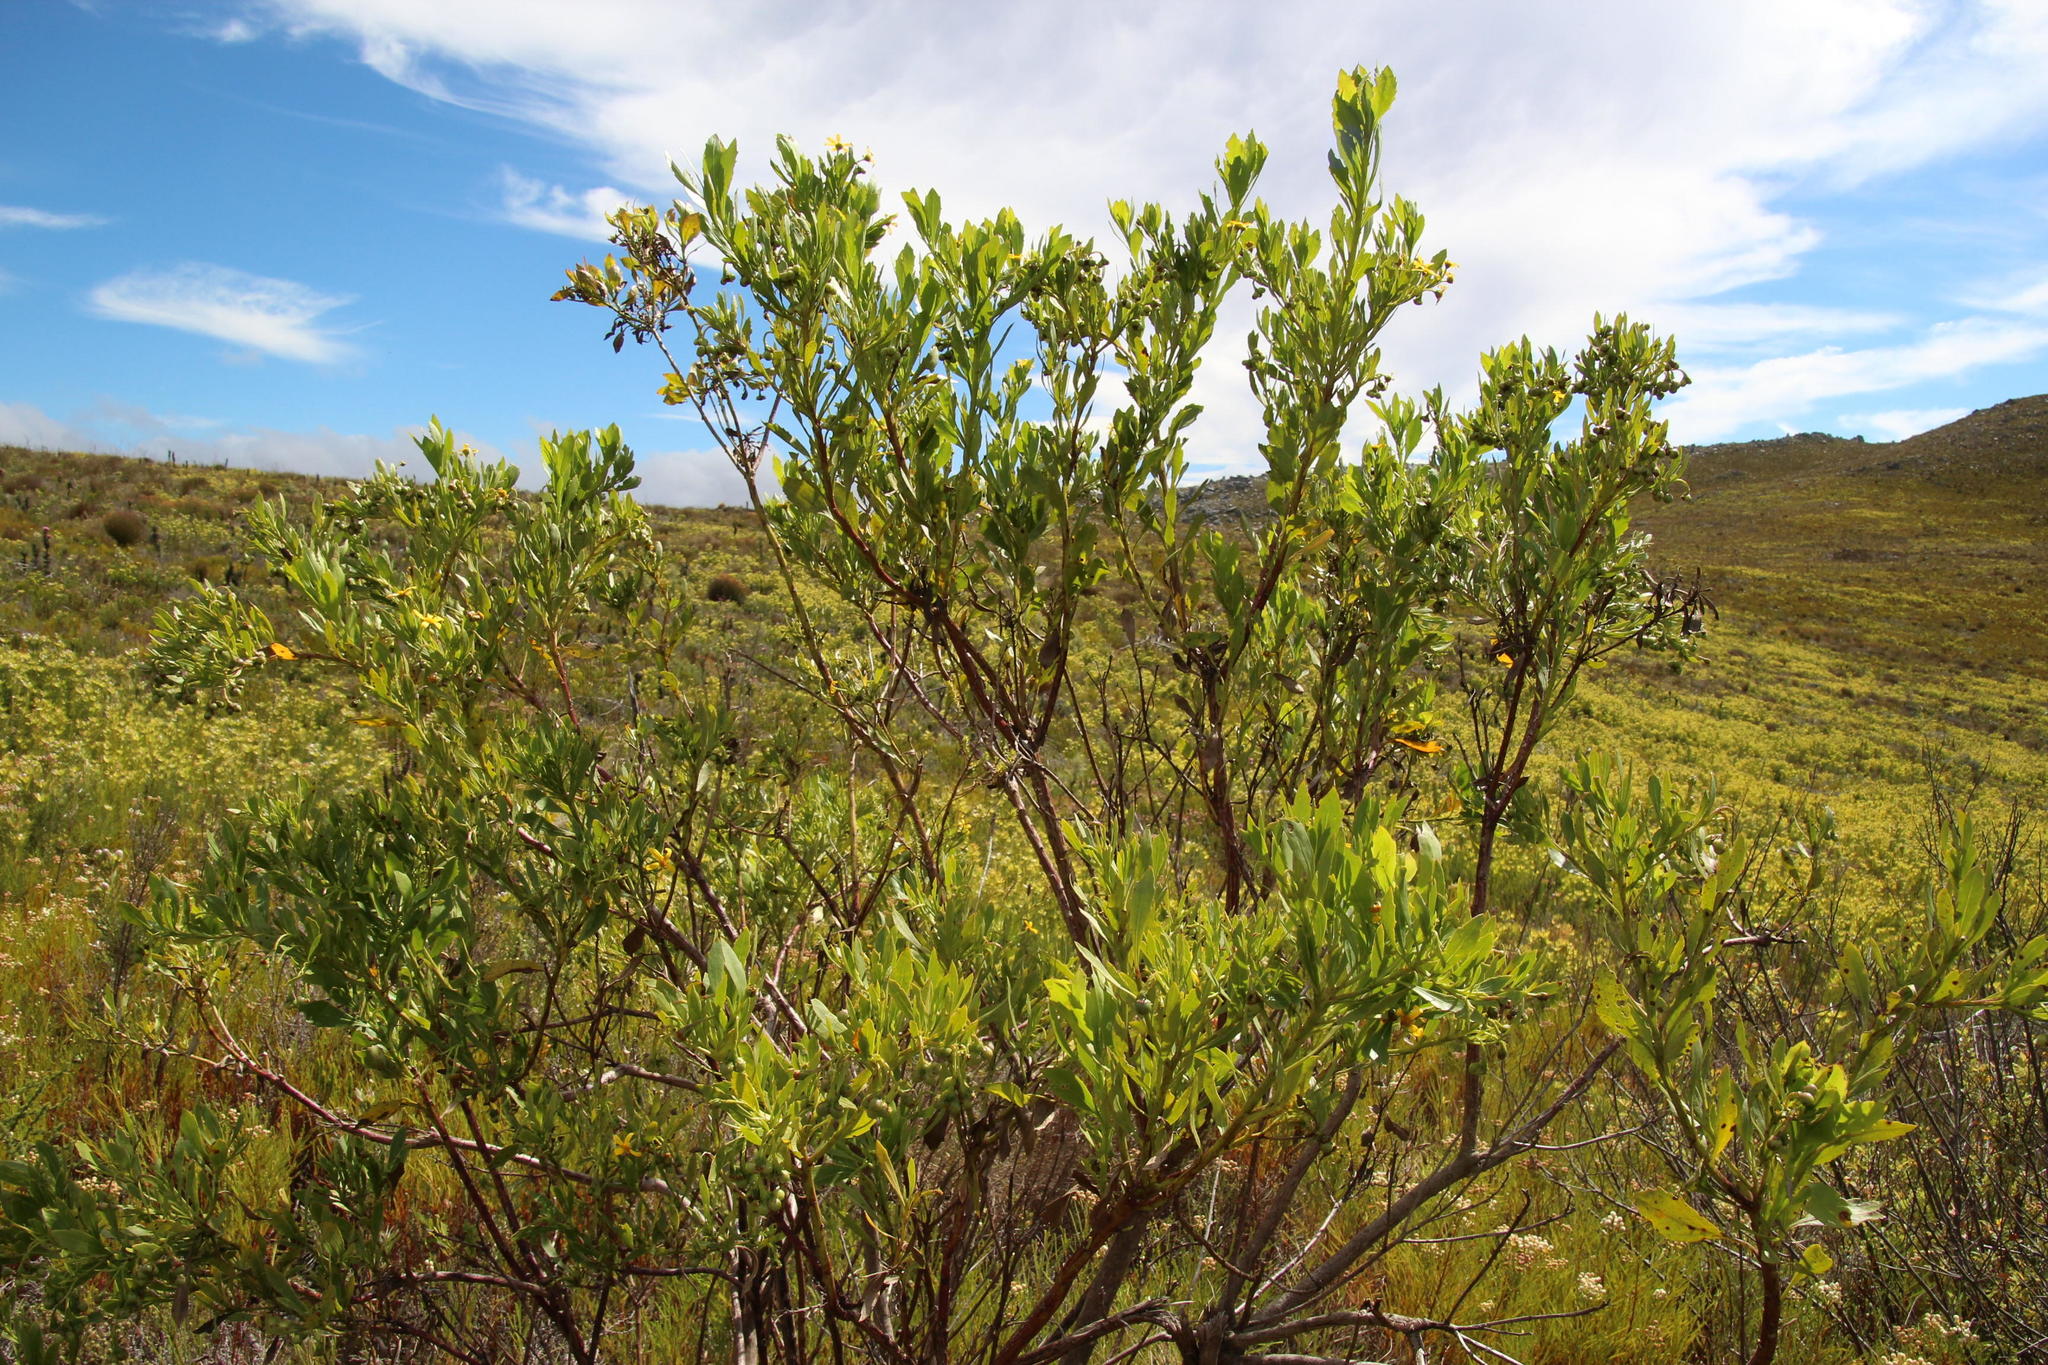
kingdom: Plantae
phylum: Tracheophyta
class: Magnoliopsida
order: Asterales
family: Asteraceae
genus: Osteospermum
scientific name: Osteospermum moniliferum
